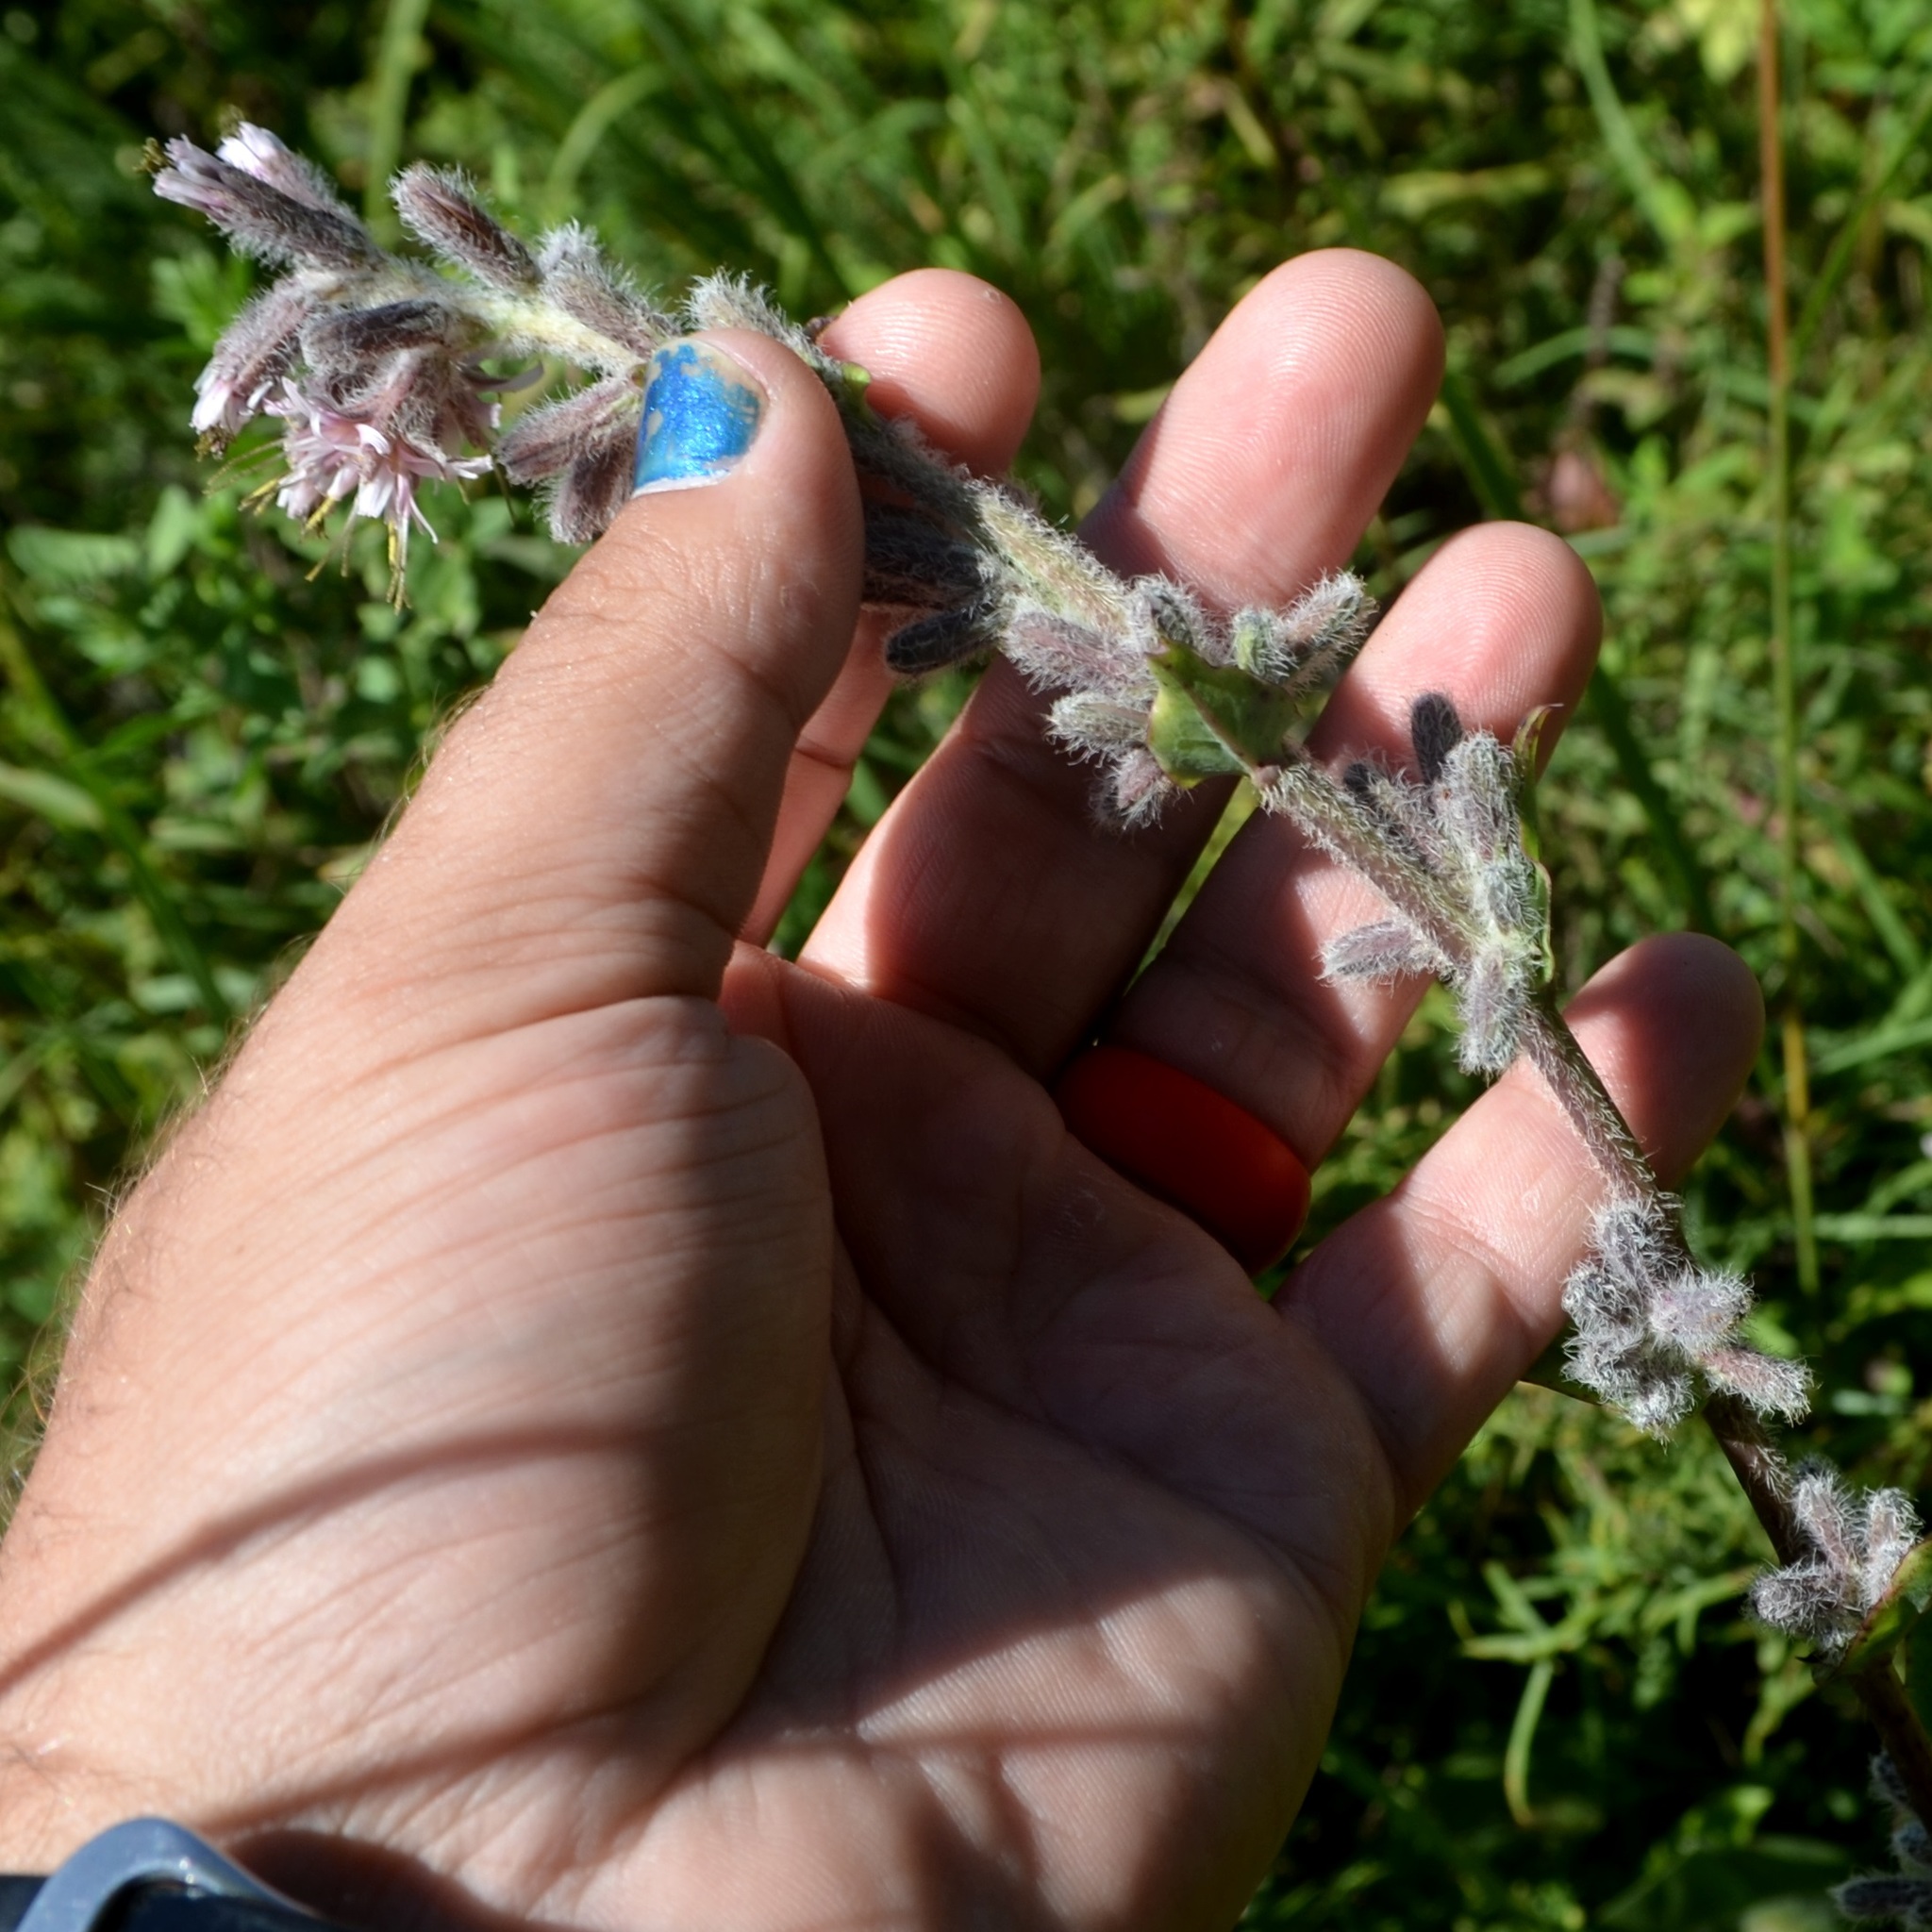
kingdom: Plantae
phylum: Tracheophyta
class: Magnoliopsida
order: Asterales
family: Asteraceae
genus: Nabalus
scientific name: Nabalus racemosus
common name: Glaucous white lettuce
